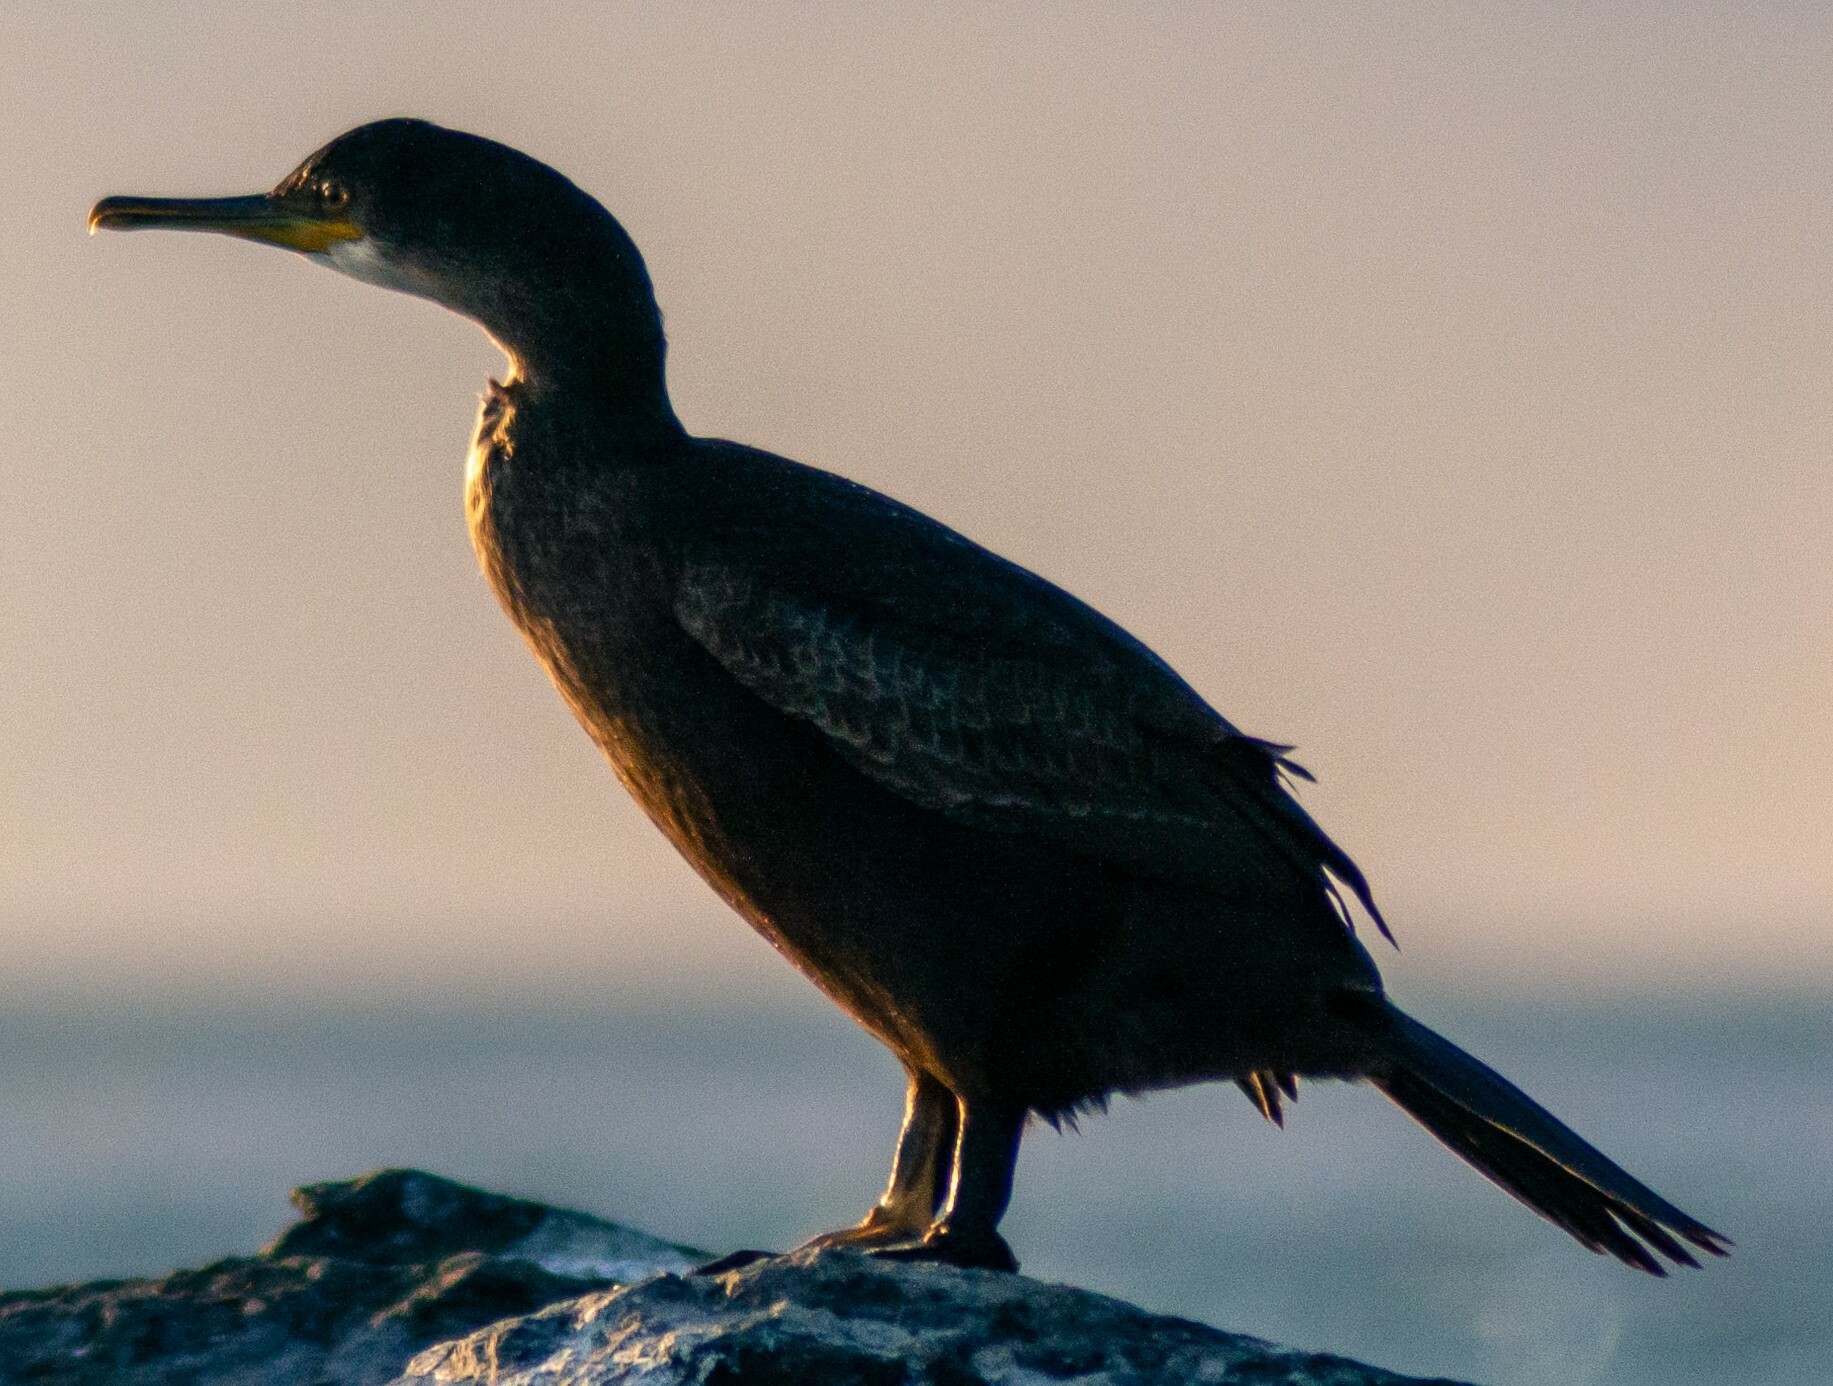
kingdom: Animalia
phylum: Chordata
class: Aves
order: Suliformes
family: Phalacrocoracidae
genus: Phalacrocorax
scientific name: Phalacrocorax carbo
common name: Great cormorant
